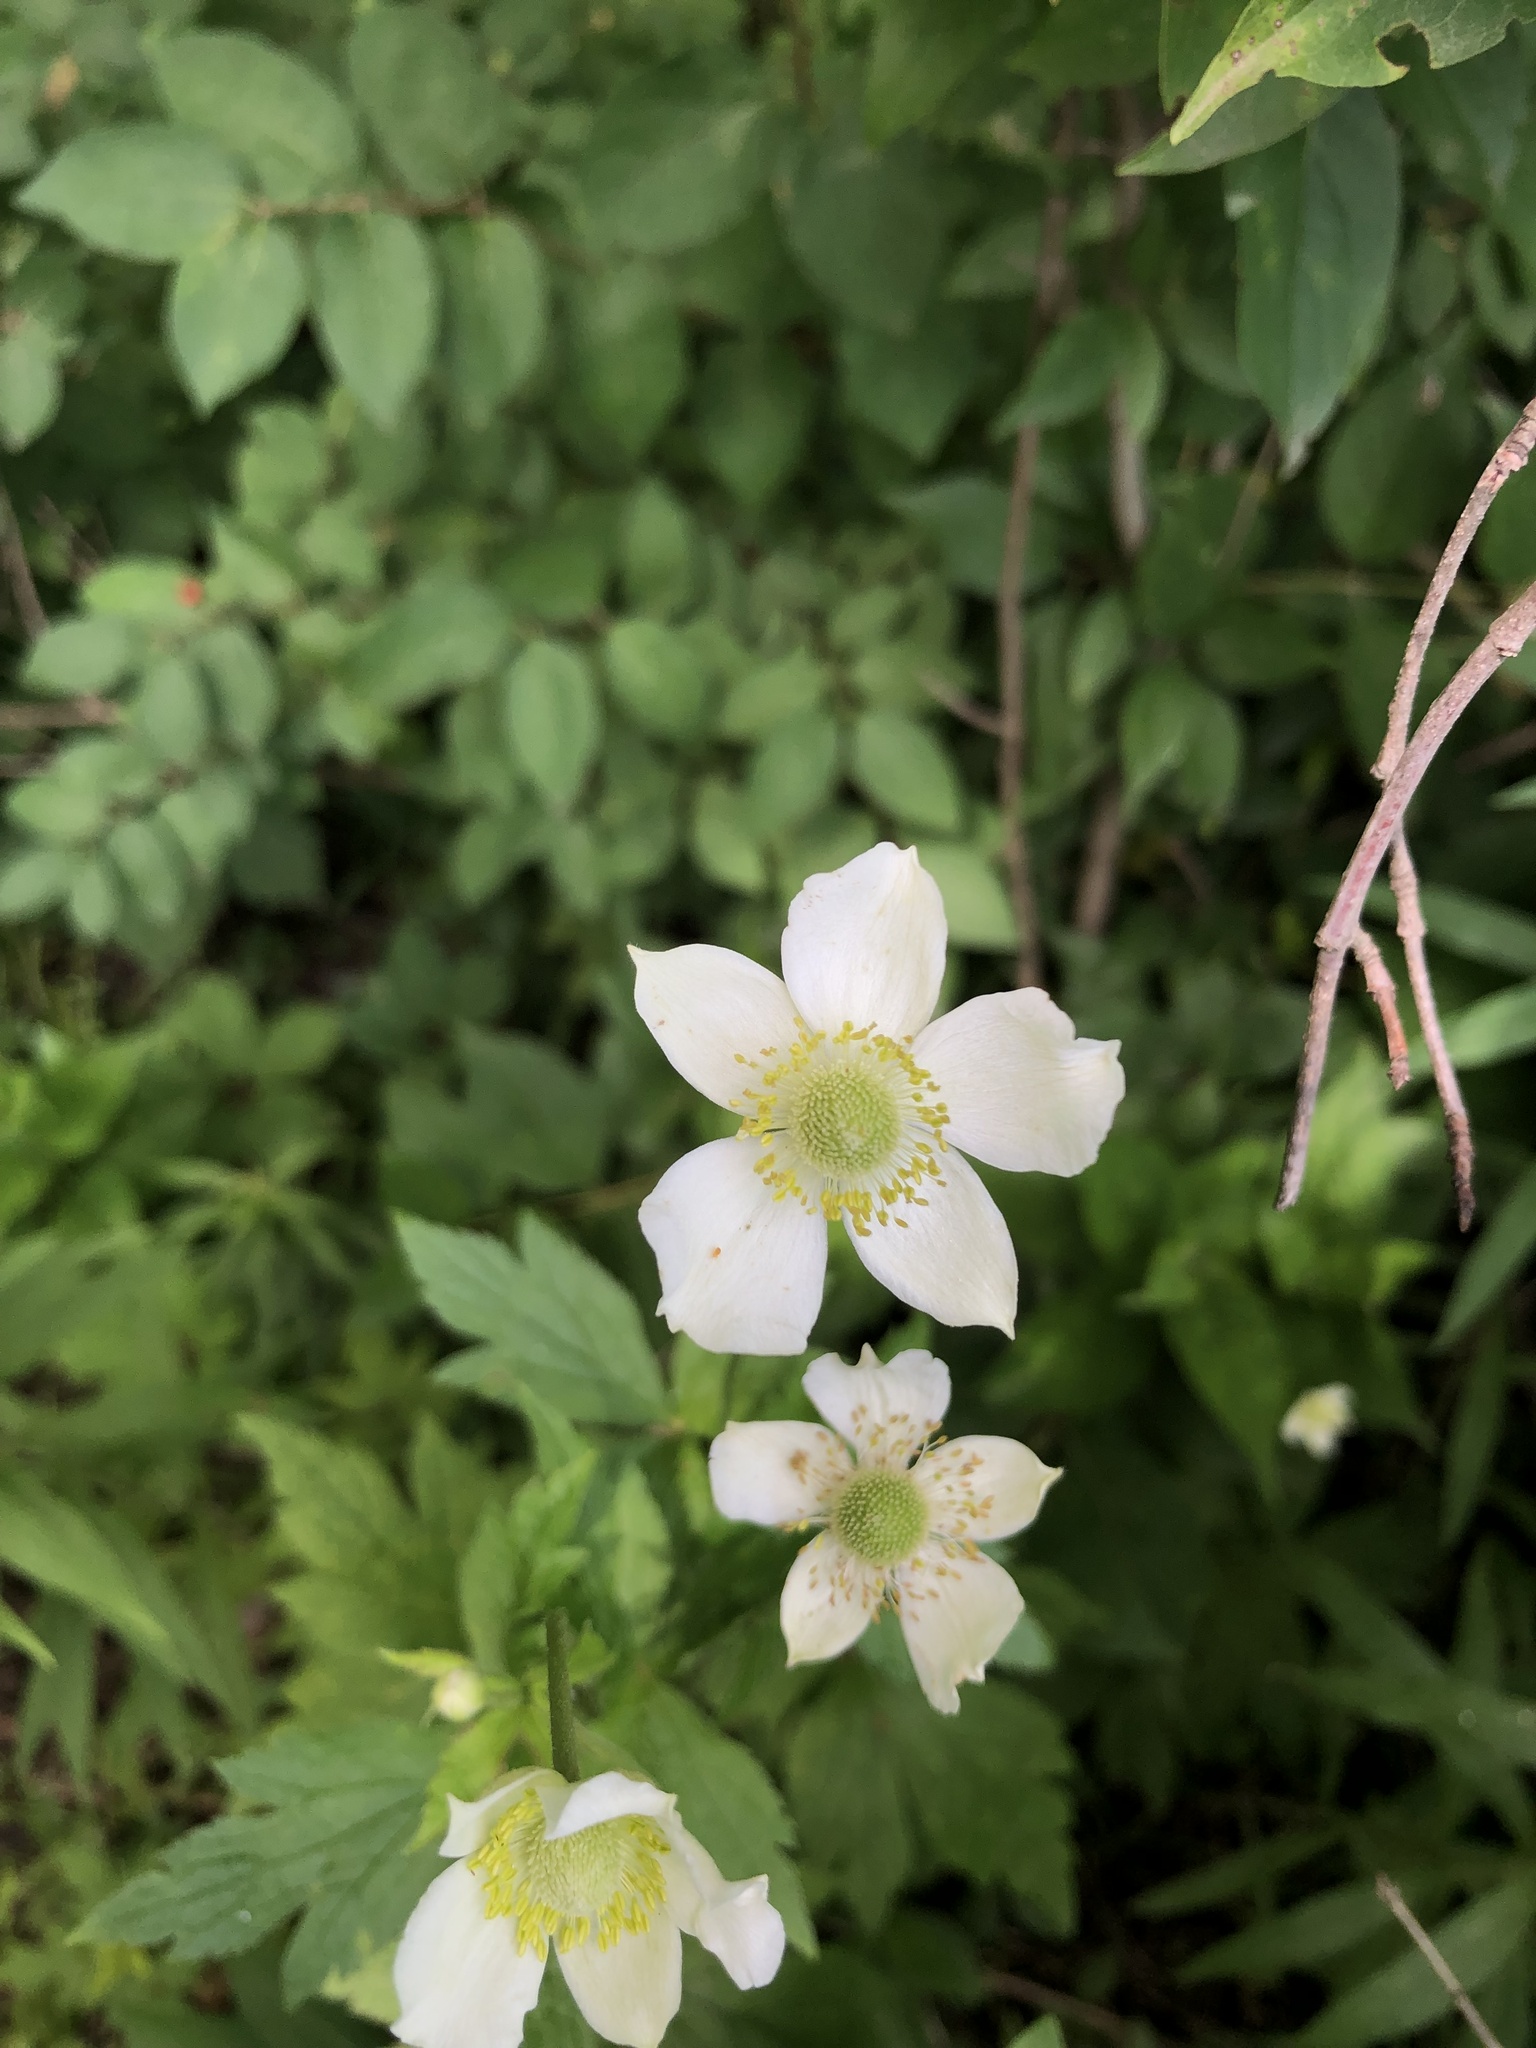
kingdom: Plantae
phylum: Tracheophyta
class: Magnoliopsida
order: Ranunculales
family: Ranunculaceae
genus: Anemone
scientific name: Anemone virginiana
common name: Tall anemone
